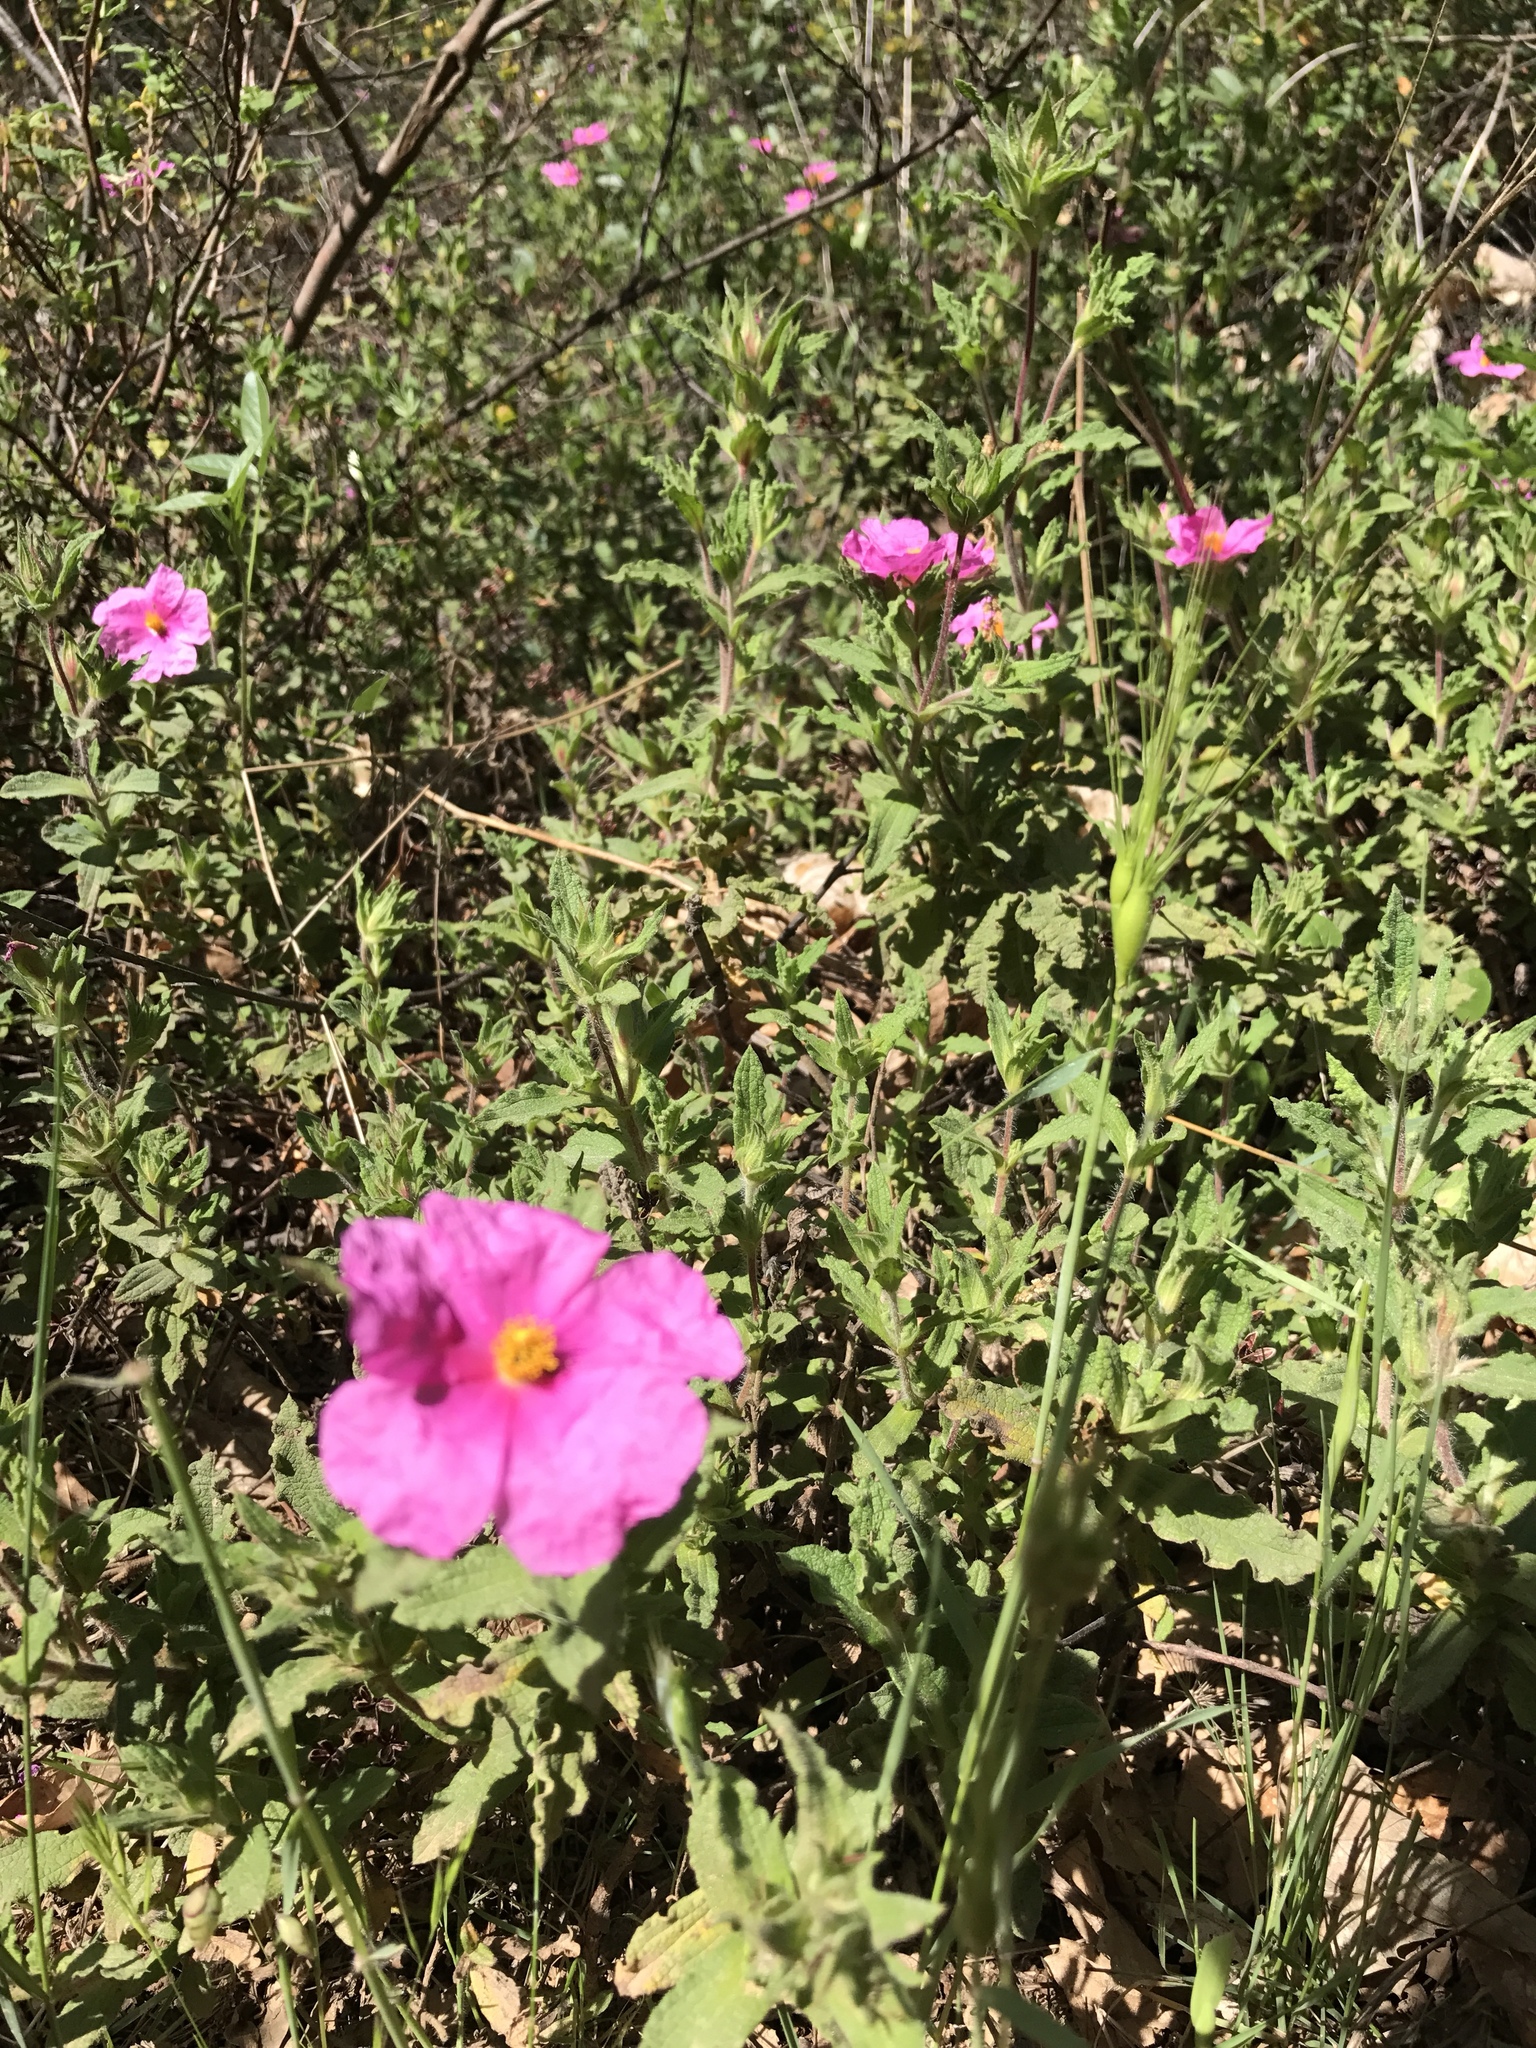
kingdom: Plantae
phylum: Tracheophyta
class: Magnoliopsida
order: Malvales
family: Cistaceae
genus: Cistus
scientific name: Cistus crispus
